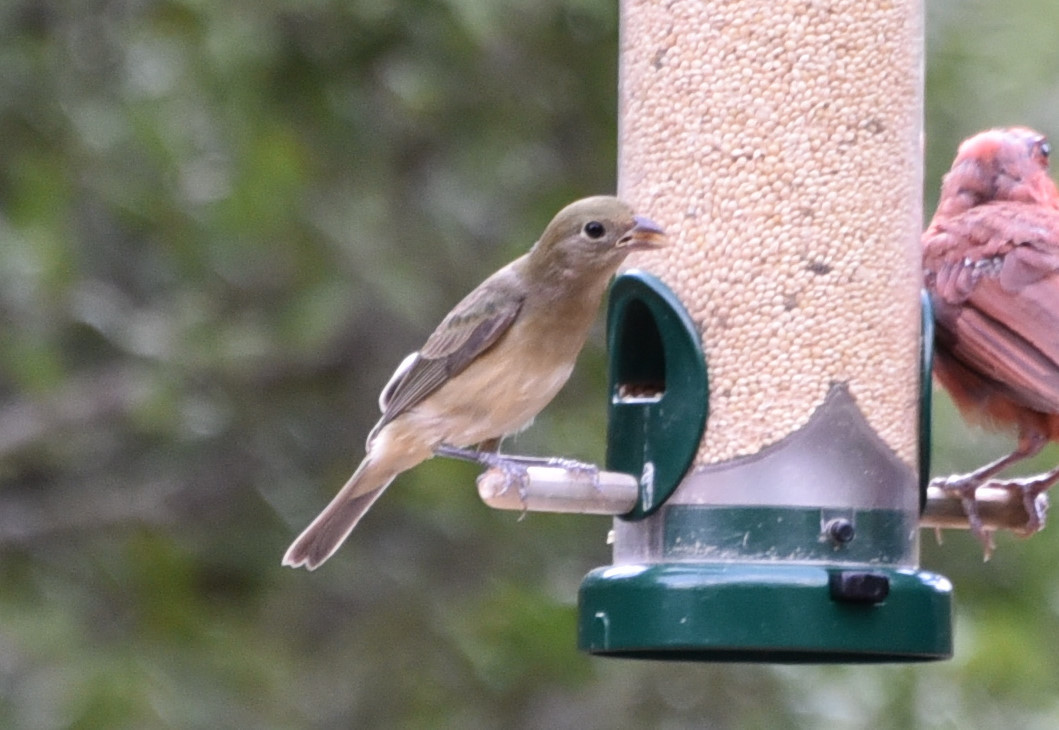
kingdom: Animalia
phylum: Chordata
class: Aves
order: Passeriformes
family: Cardinalidae
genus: Passerina
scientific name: Passerina ciris
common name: Painted bunting
